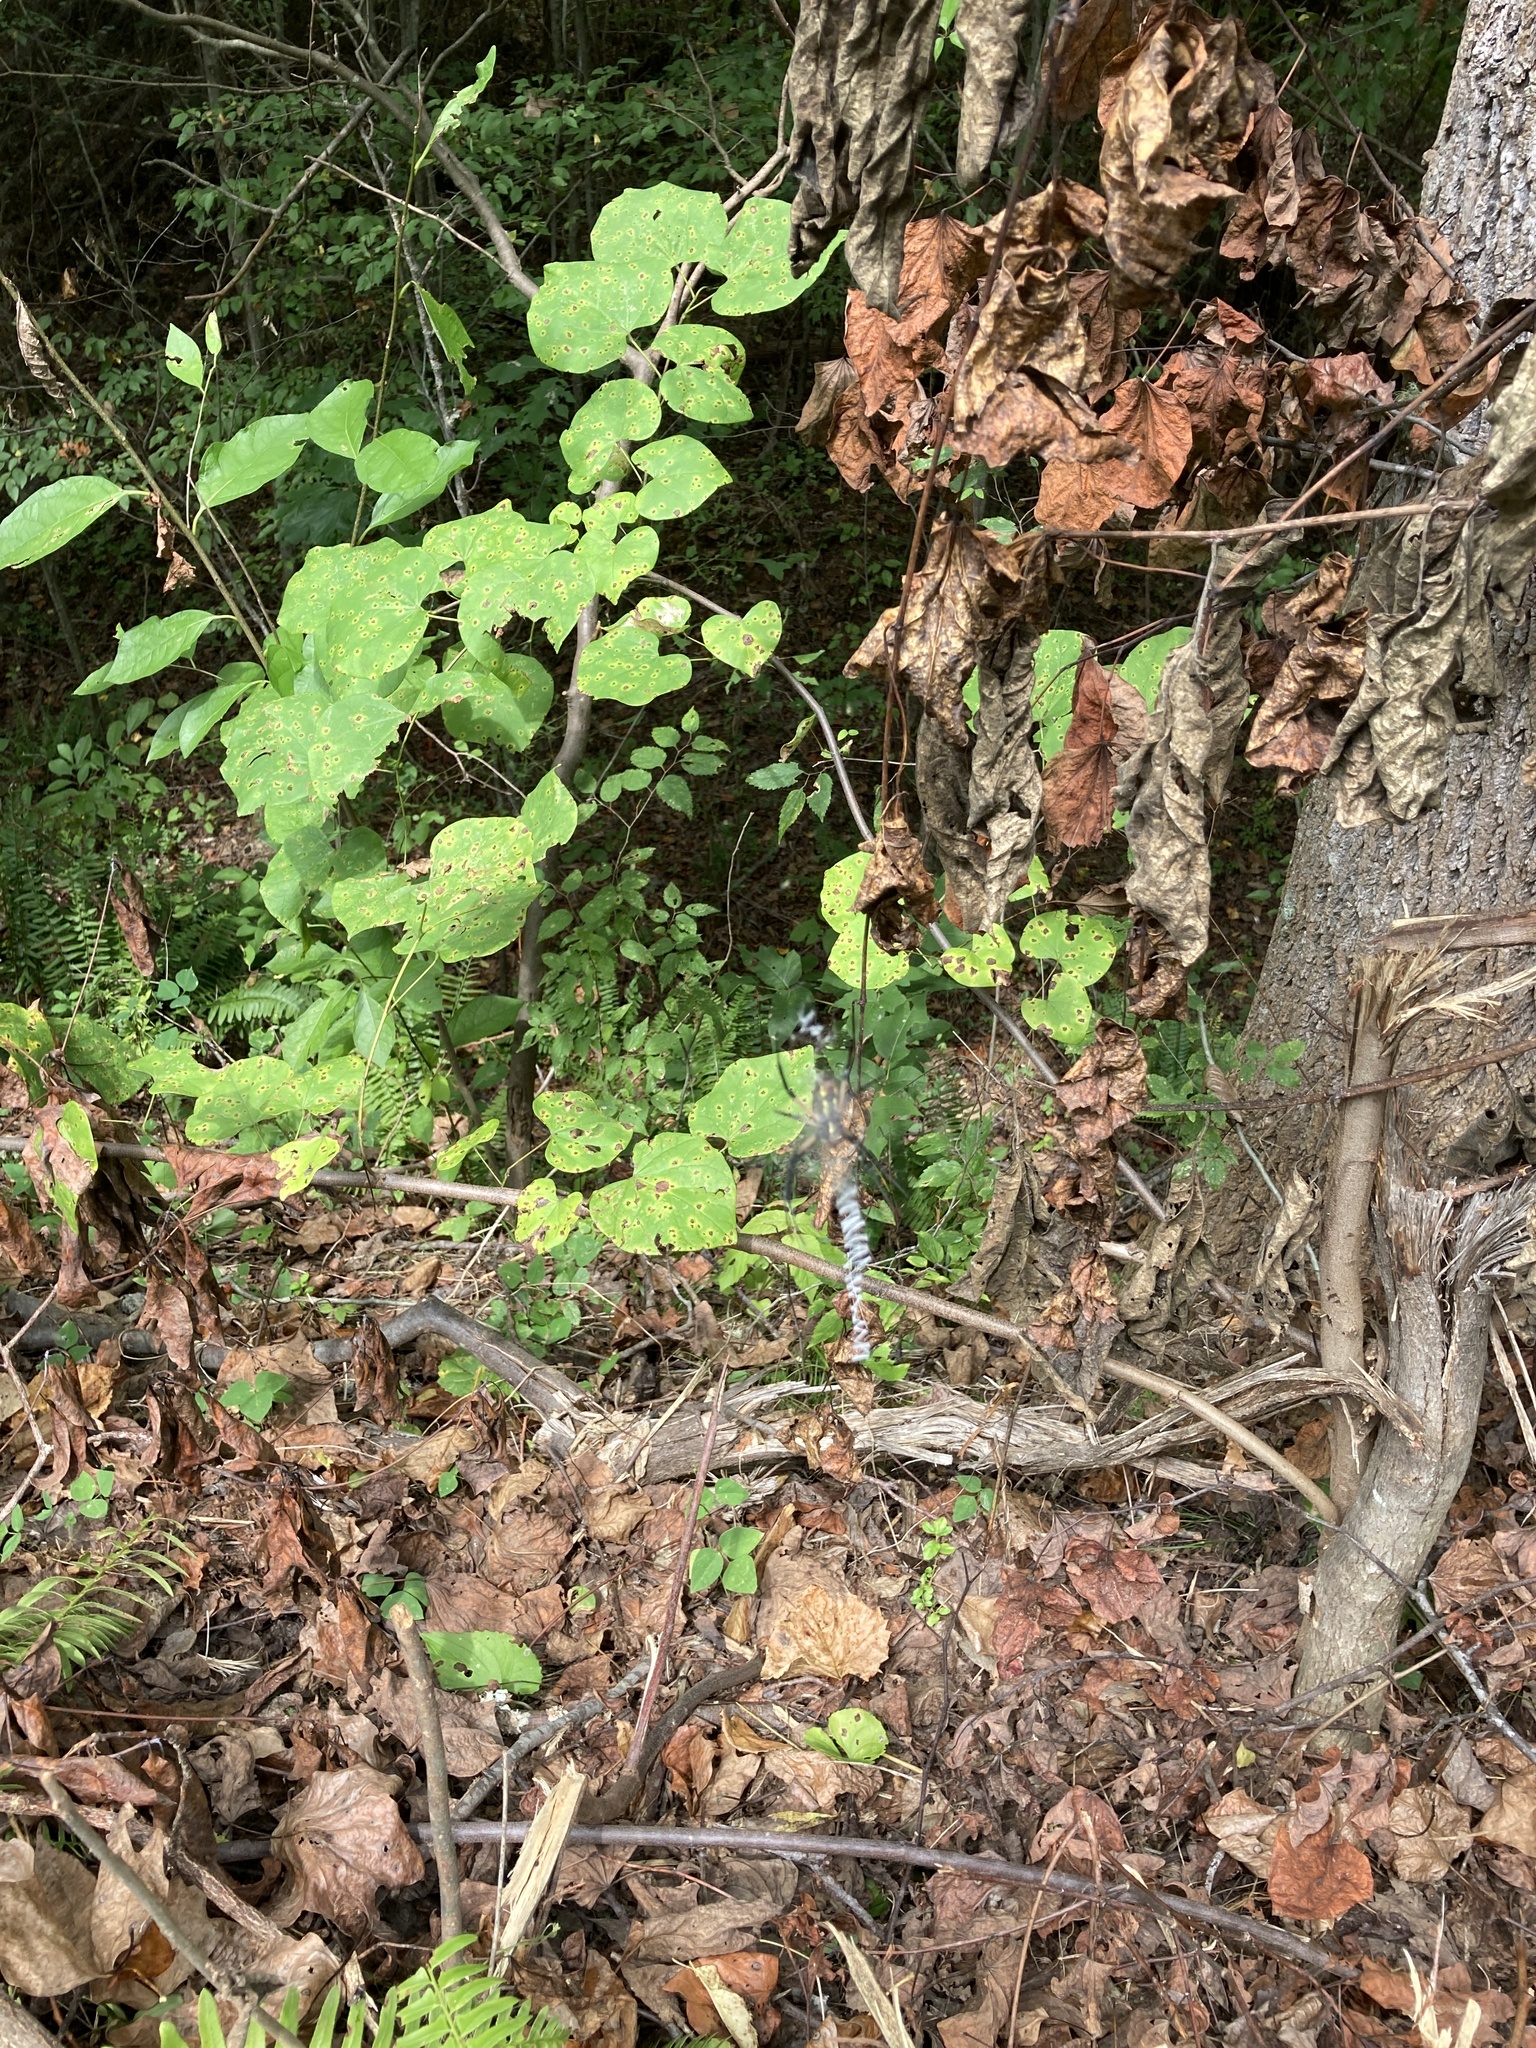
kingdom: Animalia
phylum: Arthropoda
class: Arachnida
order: Araneae
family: Araneidae
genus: Argiope
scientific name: Argiope aurantia
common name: Orb weavers
